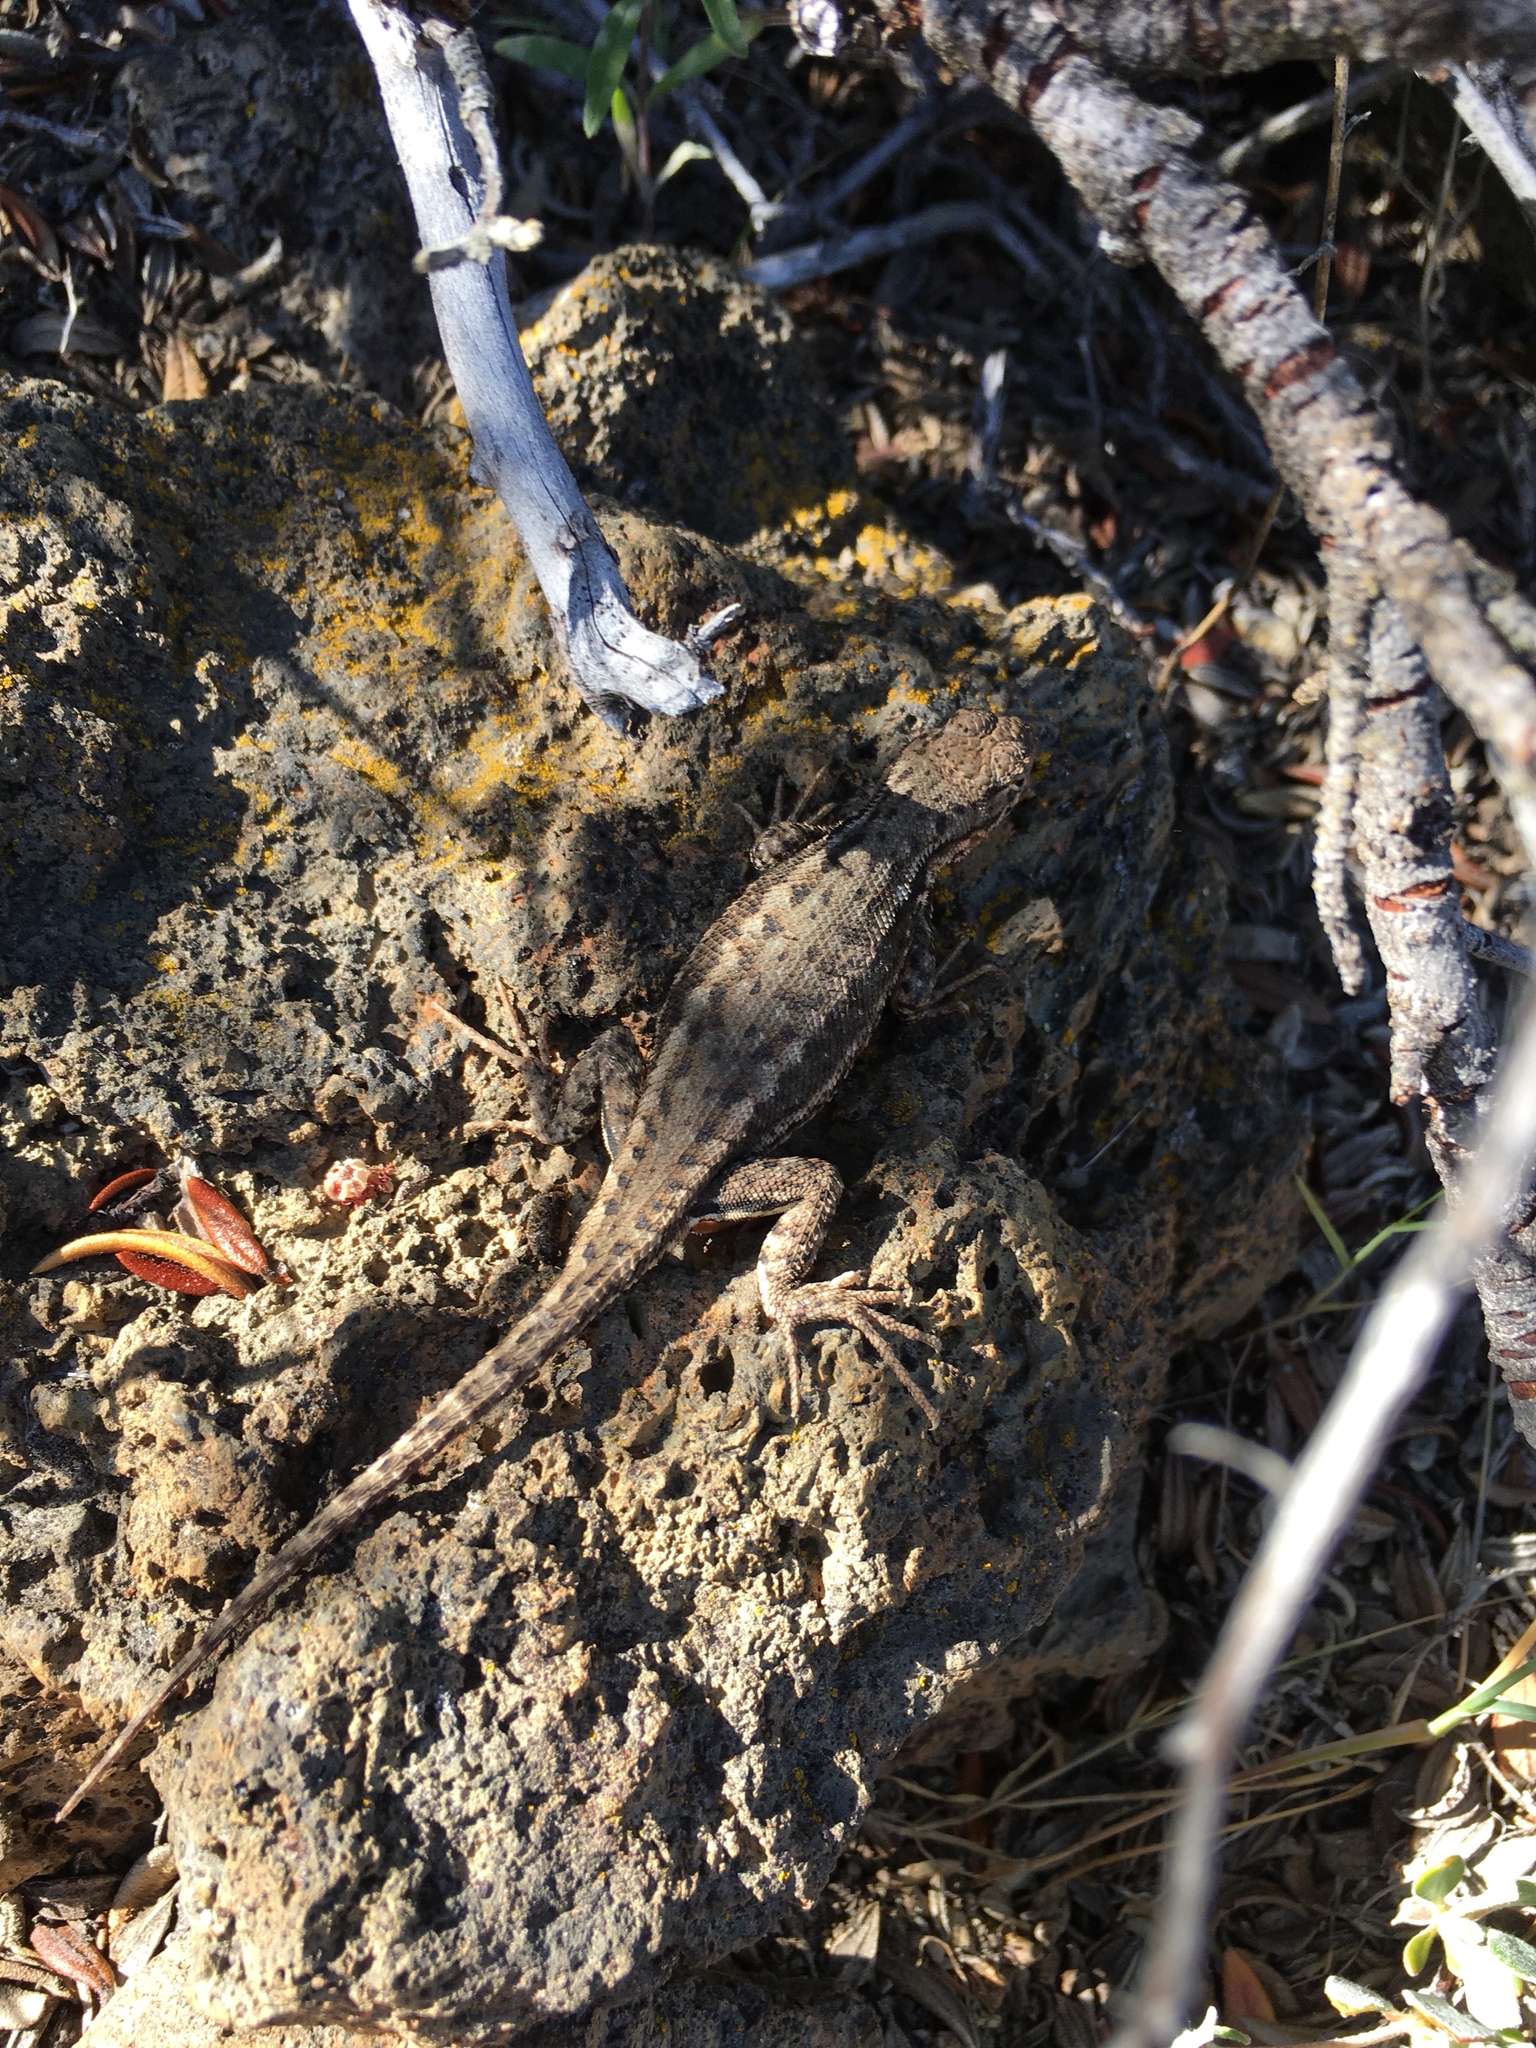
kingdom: Animalia
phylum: Chordata
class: Squamata
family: Phrynosomatidae
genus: Sceloporus
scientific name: Sceloporus occidentalis
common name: Western fence lizard
